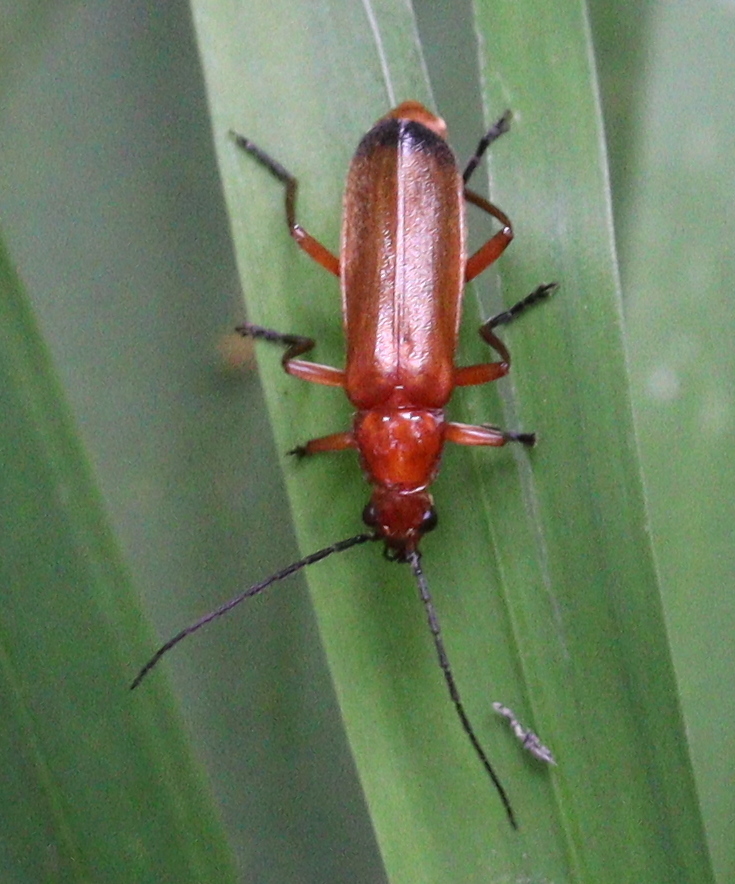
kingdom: Animalia
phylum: Arthropoda
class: Insecta
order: Coleoptera
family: Cantharidae
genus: Rhagonycha
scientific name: Rhagonycha fulva
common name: Common red soldier beetle
